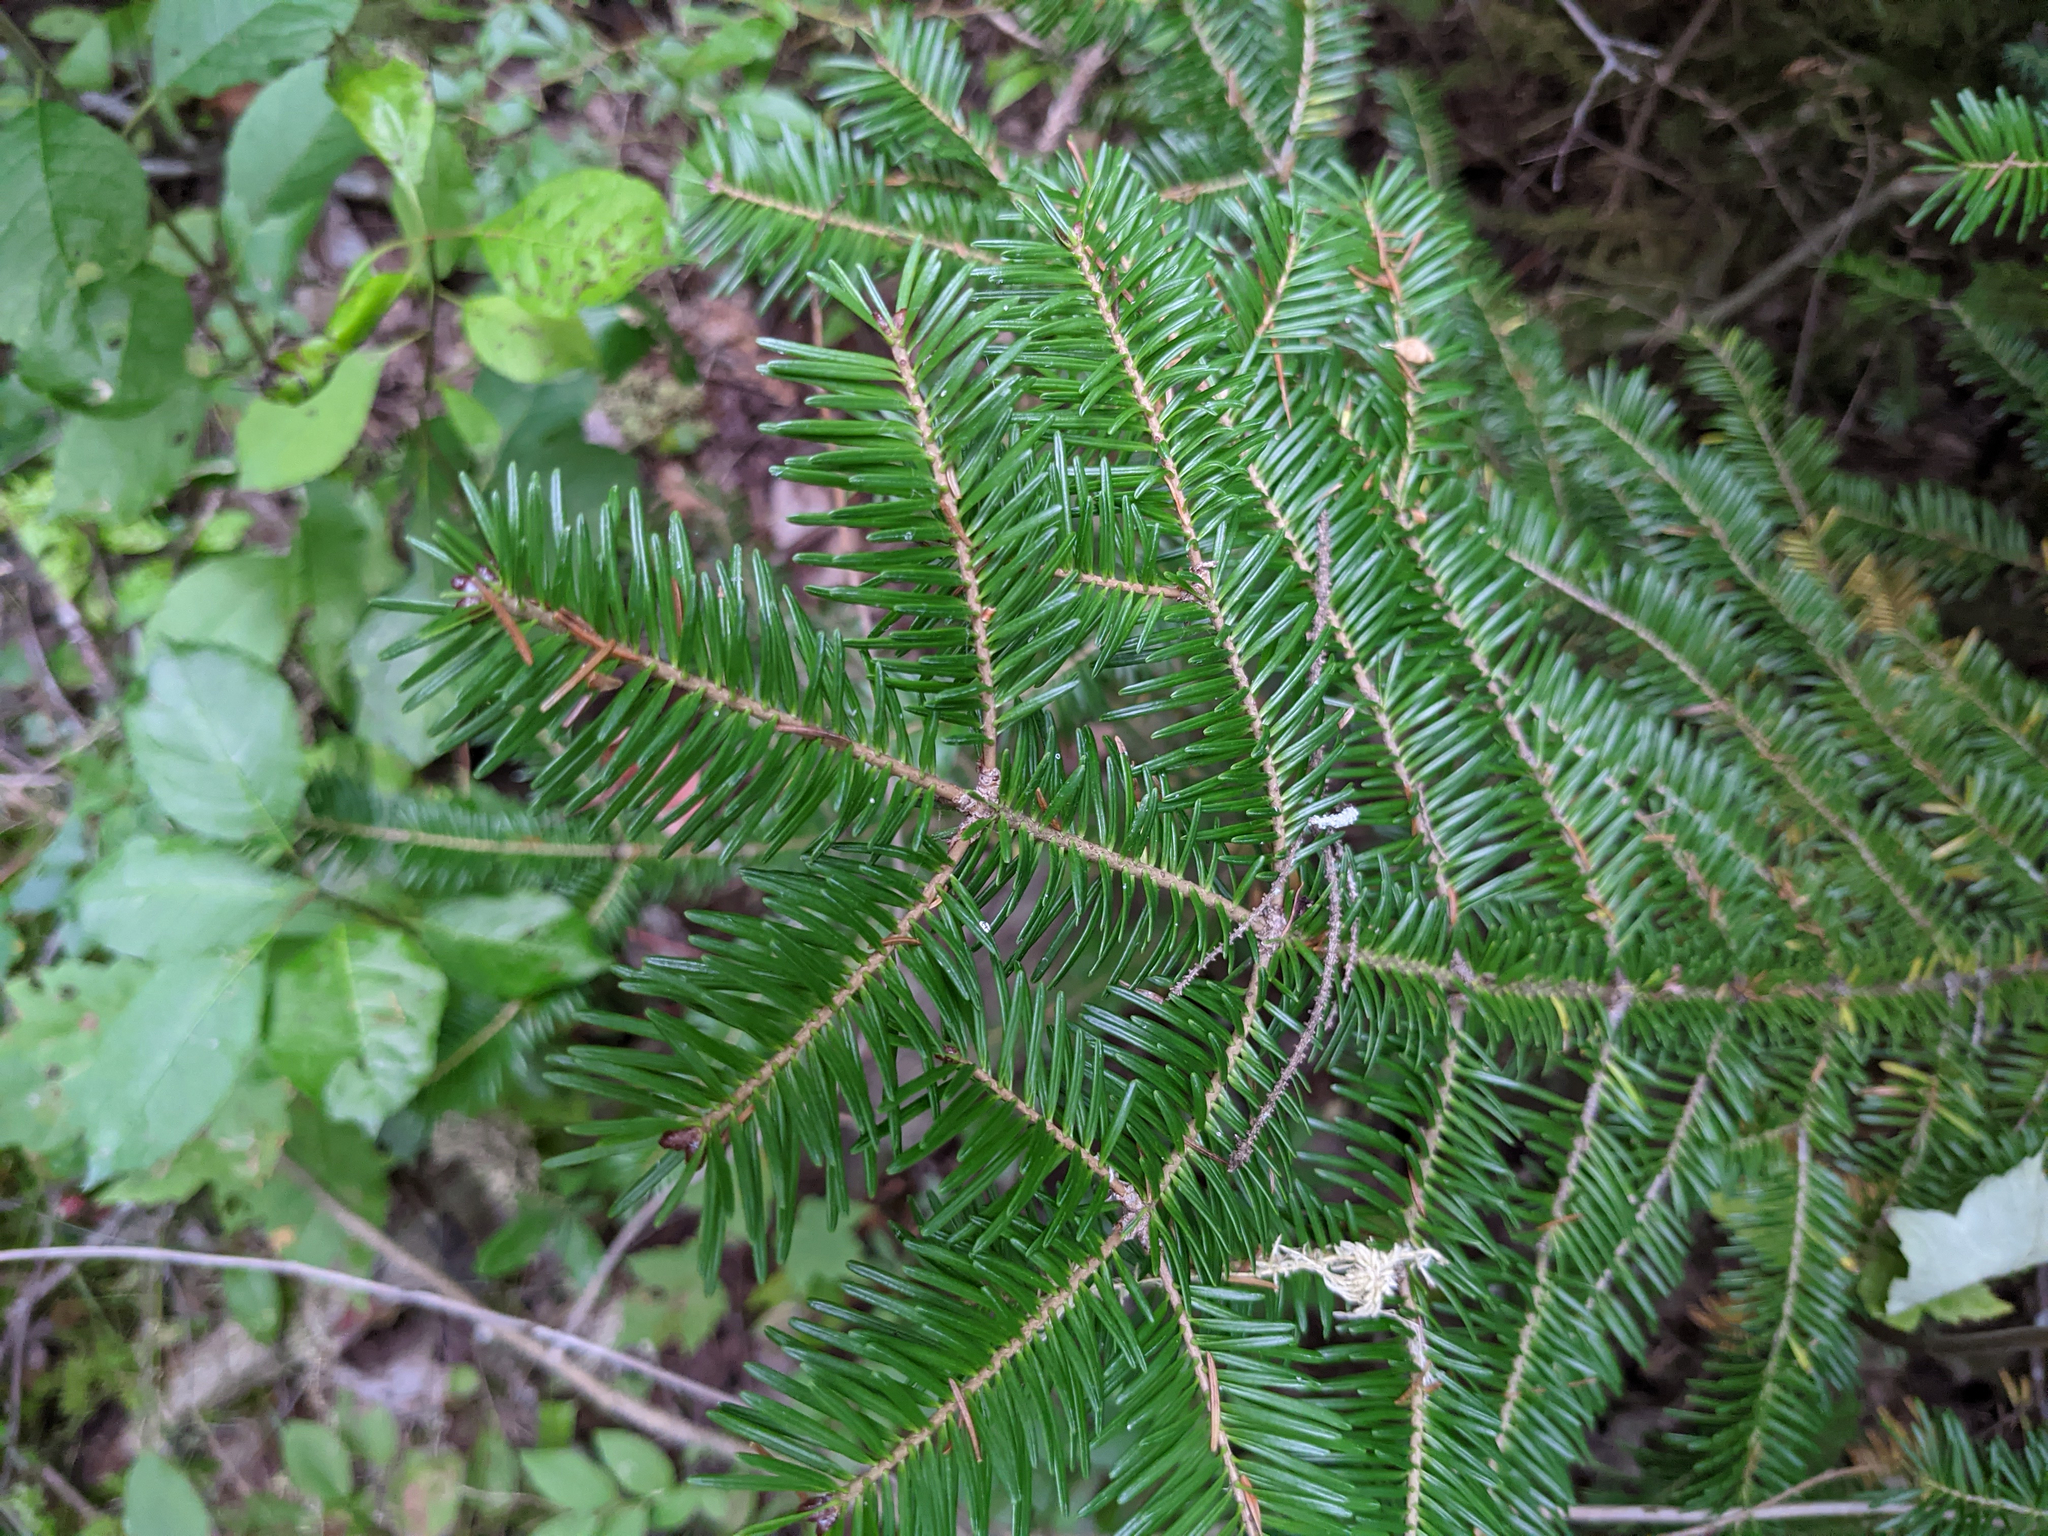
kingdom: Plantae
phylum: Tracheophyta
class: Pinopsida
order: Pinales
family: Pinaceae
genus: Abies
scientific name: Abies balsamea
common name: Balsam fir
